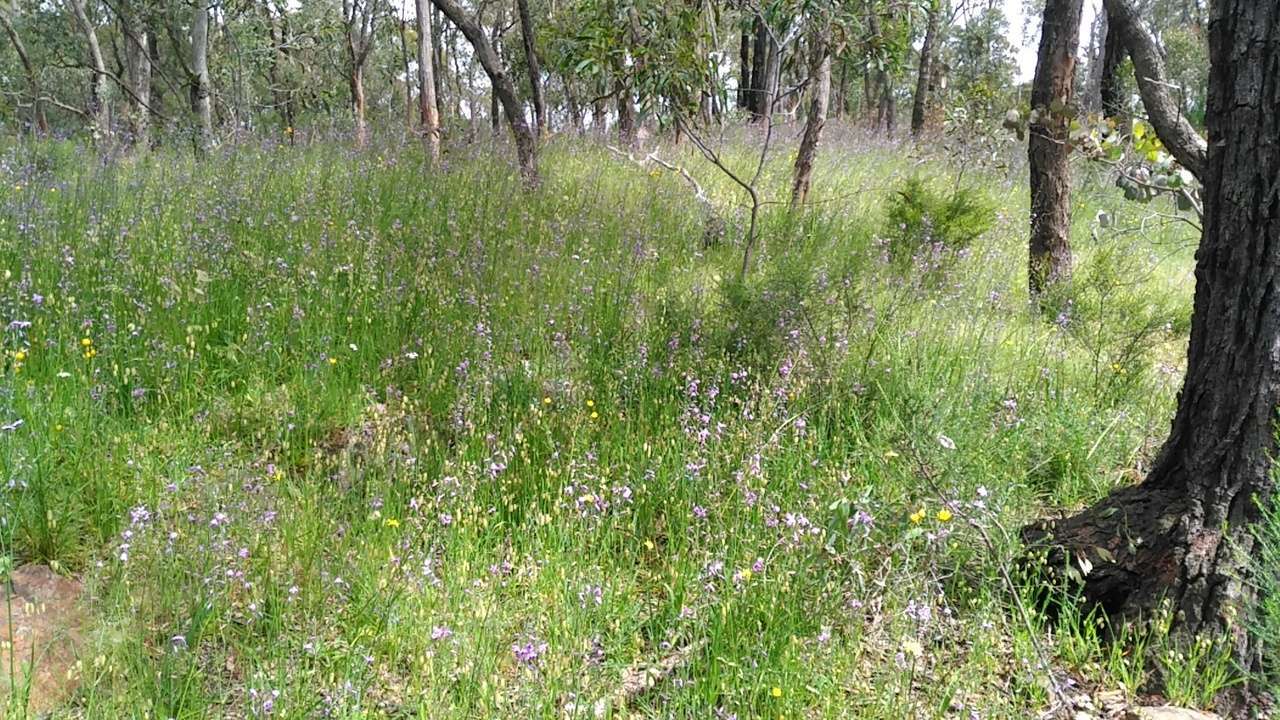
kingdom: Plantae
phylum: Tracheophyta
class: Liliopsida
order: Asparagales
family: Asparagaceae
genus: Arthropodium
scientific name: Arthropodium strictum
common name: Chocolate-lily
